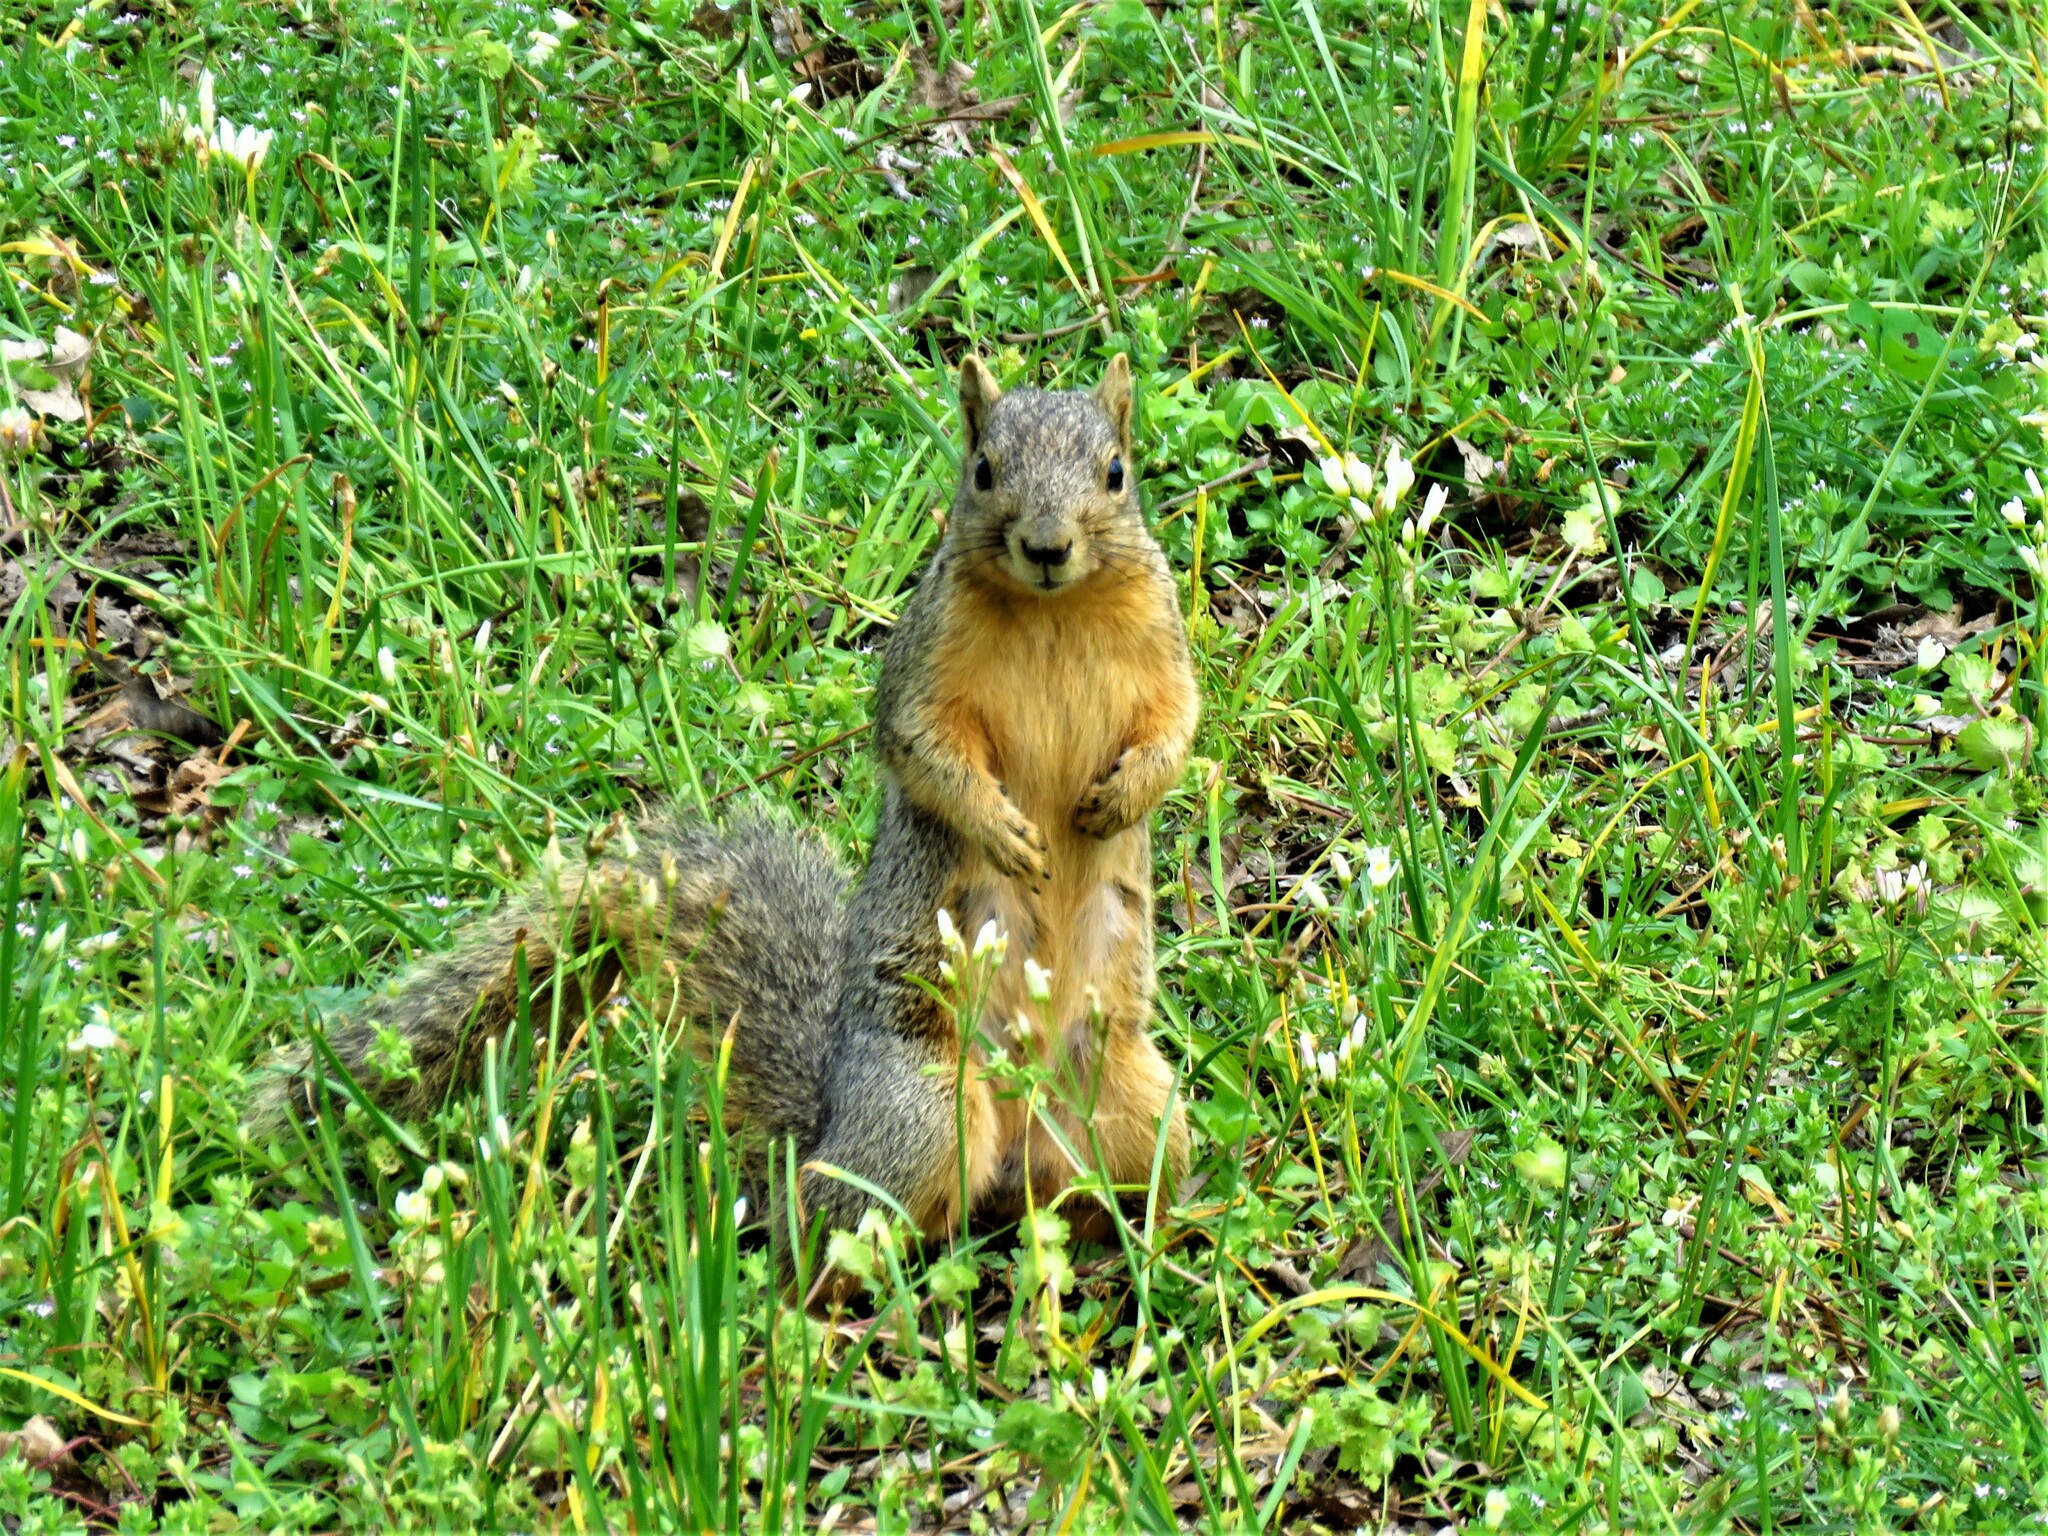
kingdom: Animalia
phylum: Chordata
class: Mammalia
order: Rodentia
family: Sciuridae
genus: Sciurus
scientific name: Sciurus niger
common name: Fox squirrel
